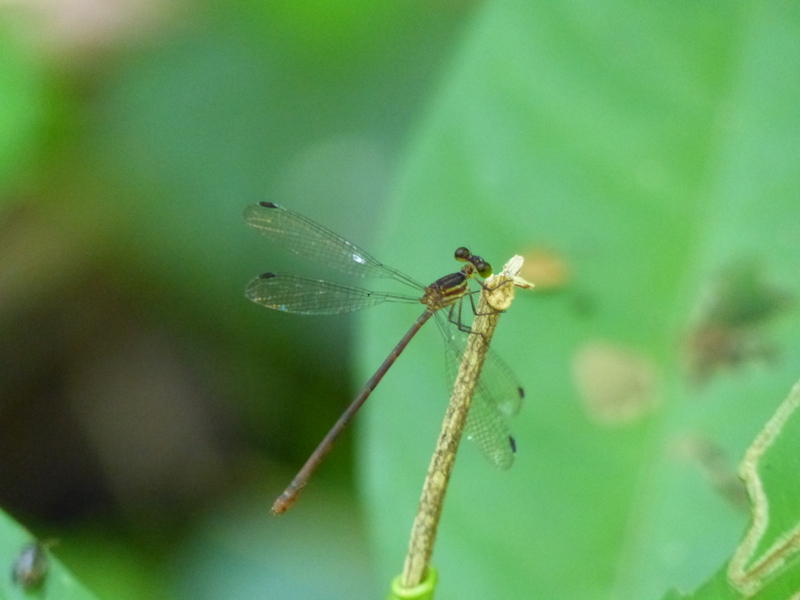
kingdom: Animalia
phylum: Arthropoda
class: Insecta
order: Odonata
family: Heteragrionidae
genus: Heteragrion
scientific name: Heteragrion mitratum
